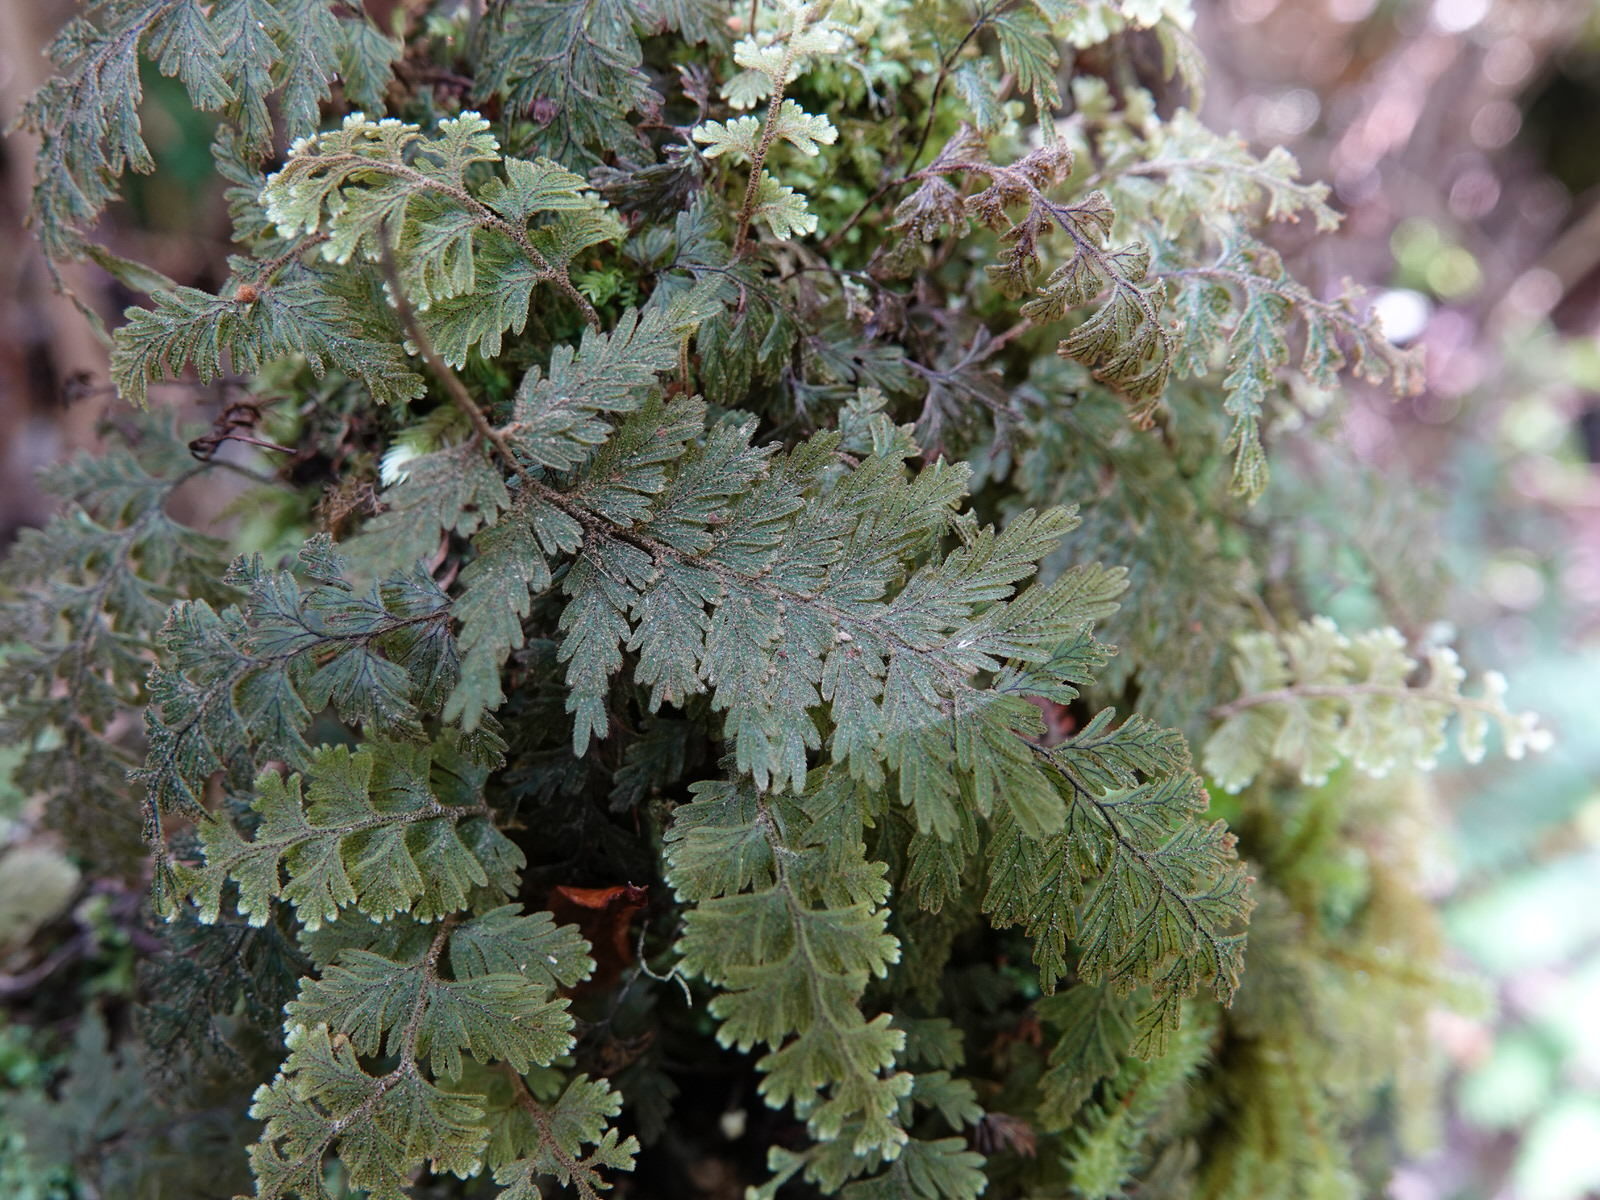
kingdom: Plantae
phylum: Tracheophyta
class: Polypodiopsida
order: Hymenophyllales
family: Hymenophyllaceae
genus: Hymenophyllum
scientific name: Hymenophyllum frankliniae
